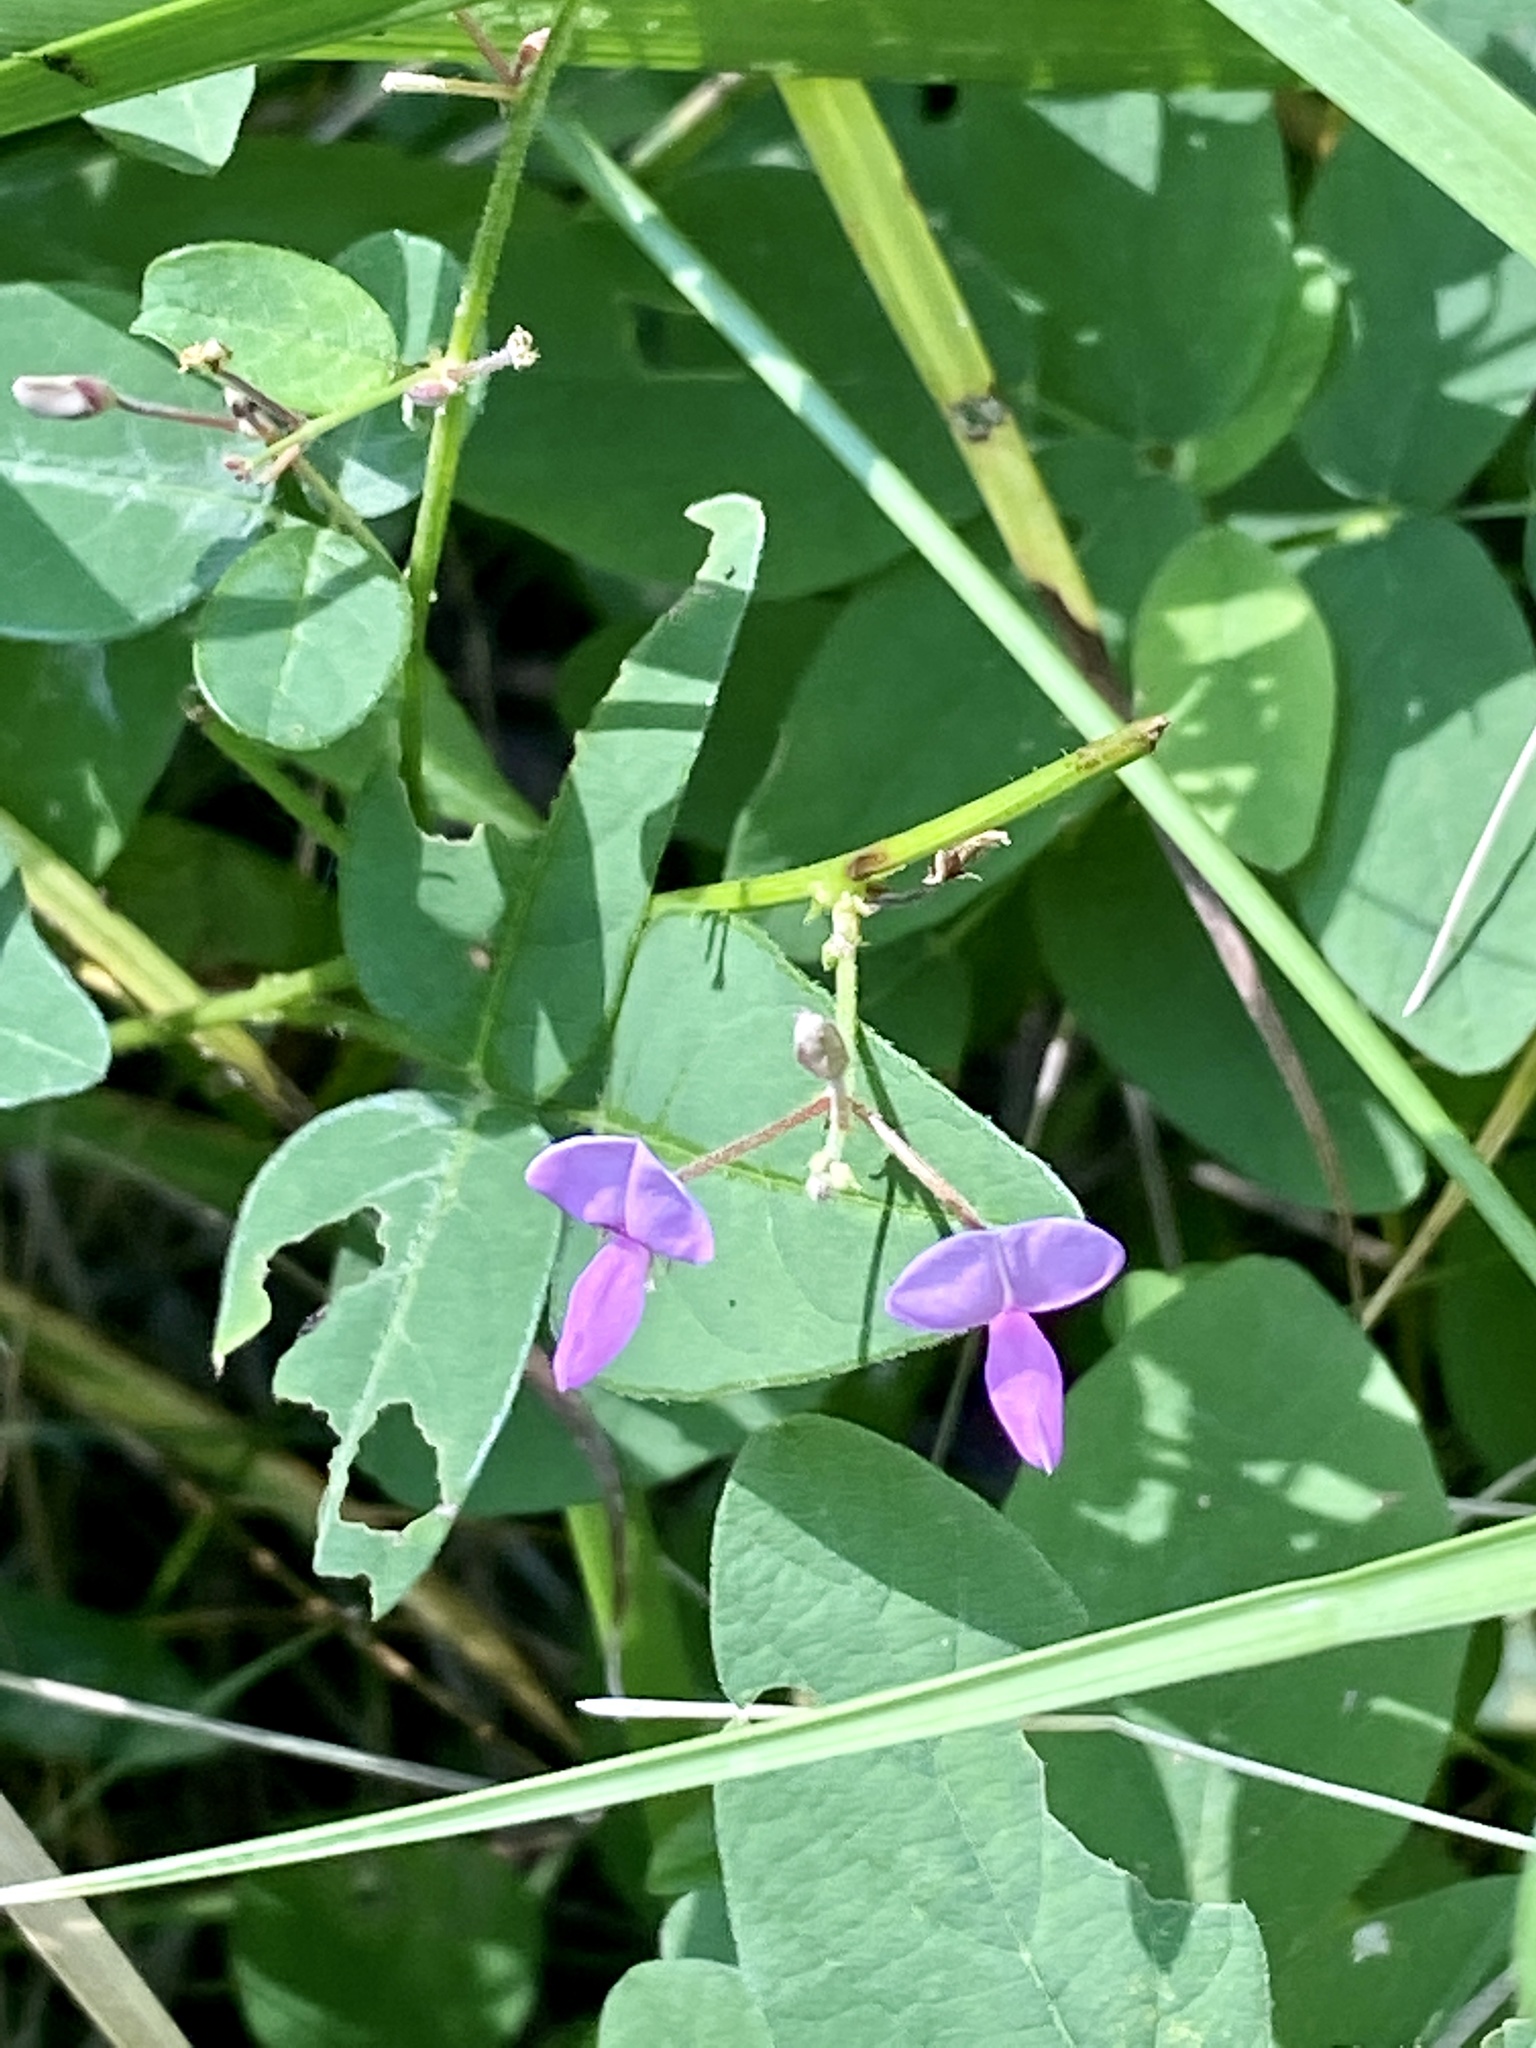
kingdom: Plantae
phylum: Tracheophyta
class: Magnoliopsida
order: Fabales
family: Fabaceae
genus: Desmodium
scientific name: Desmodium paniculatum
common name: Panicled tick-clover
